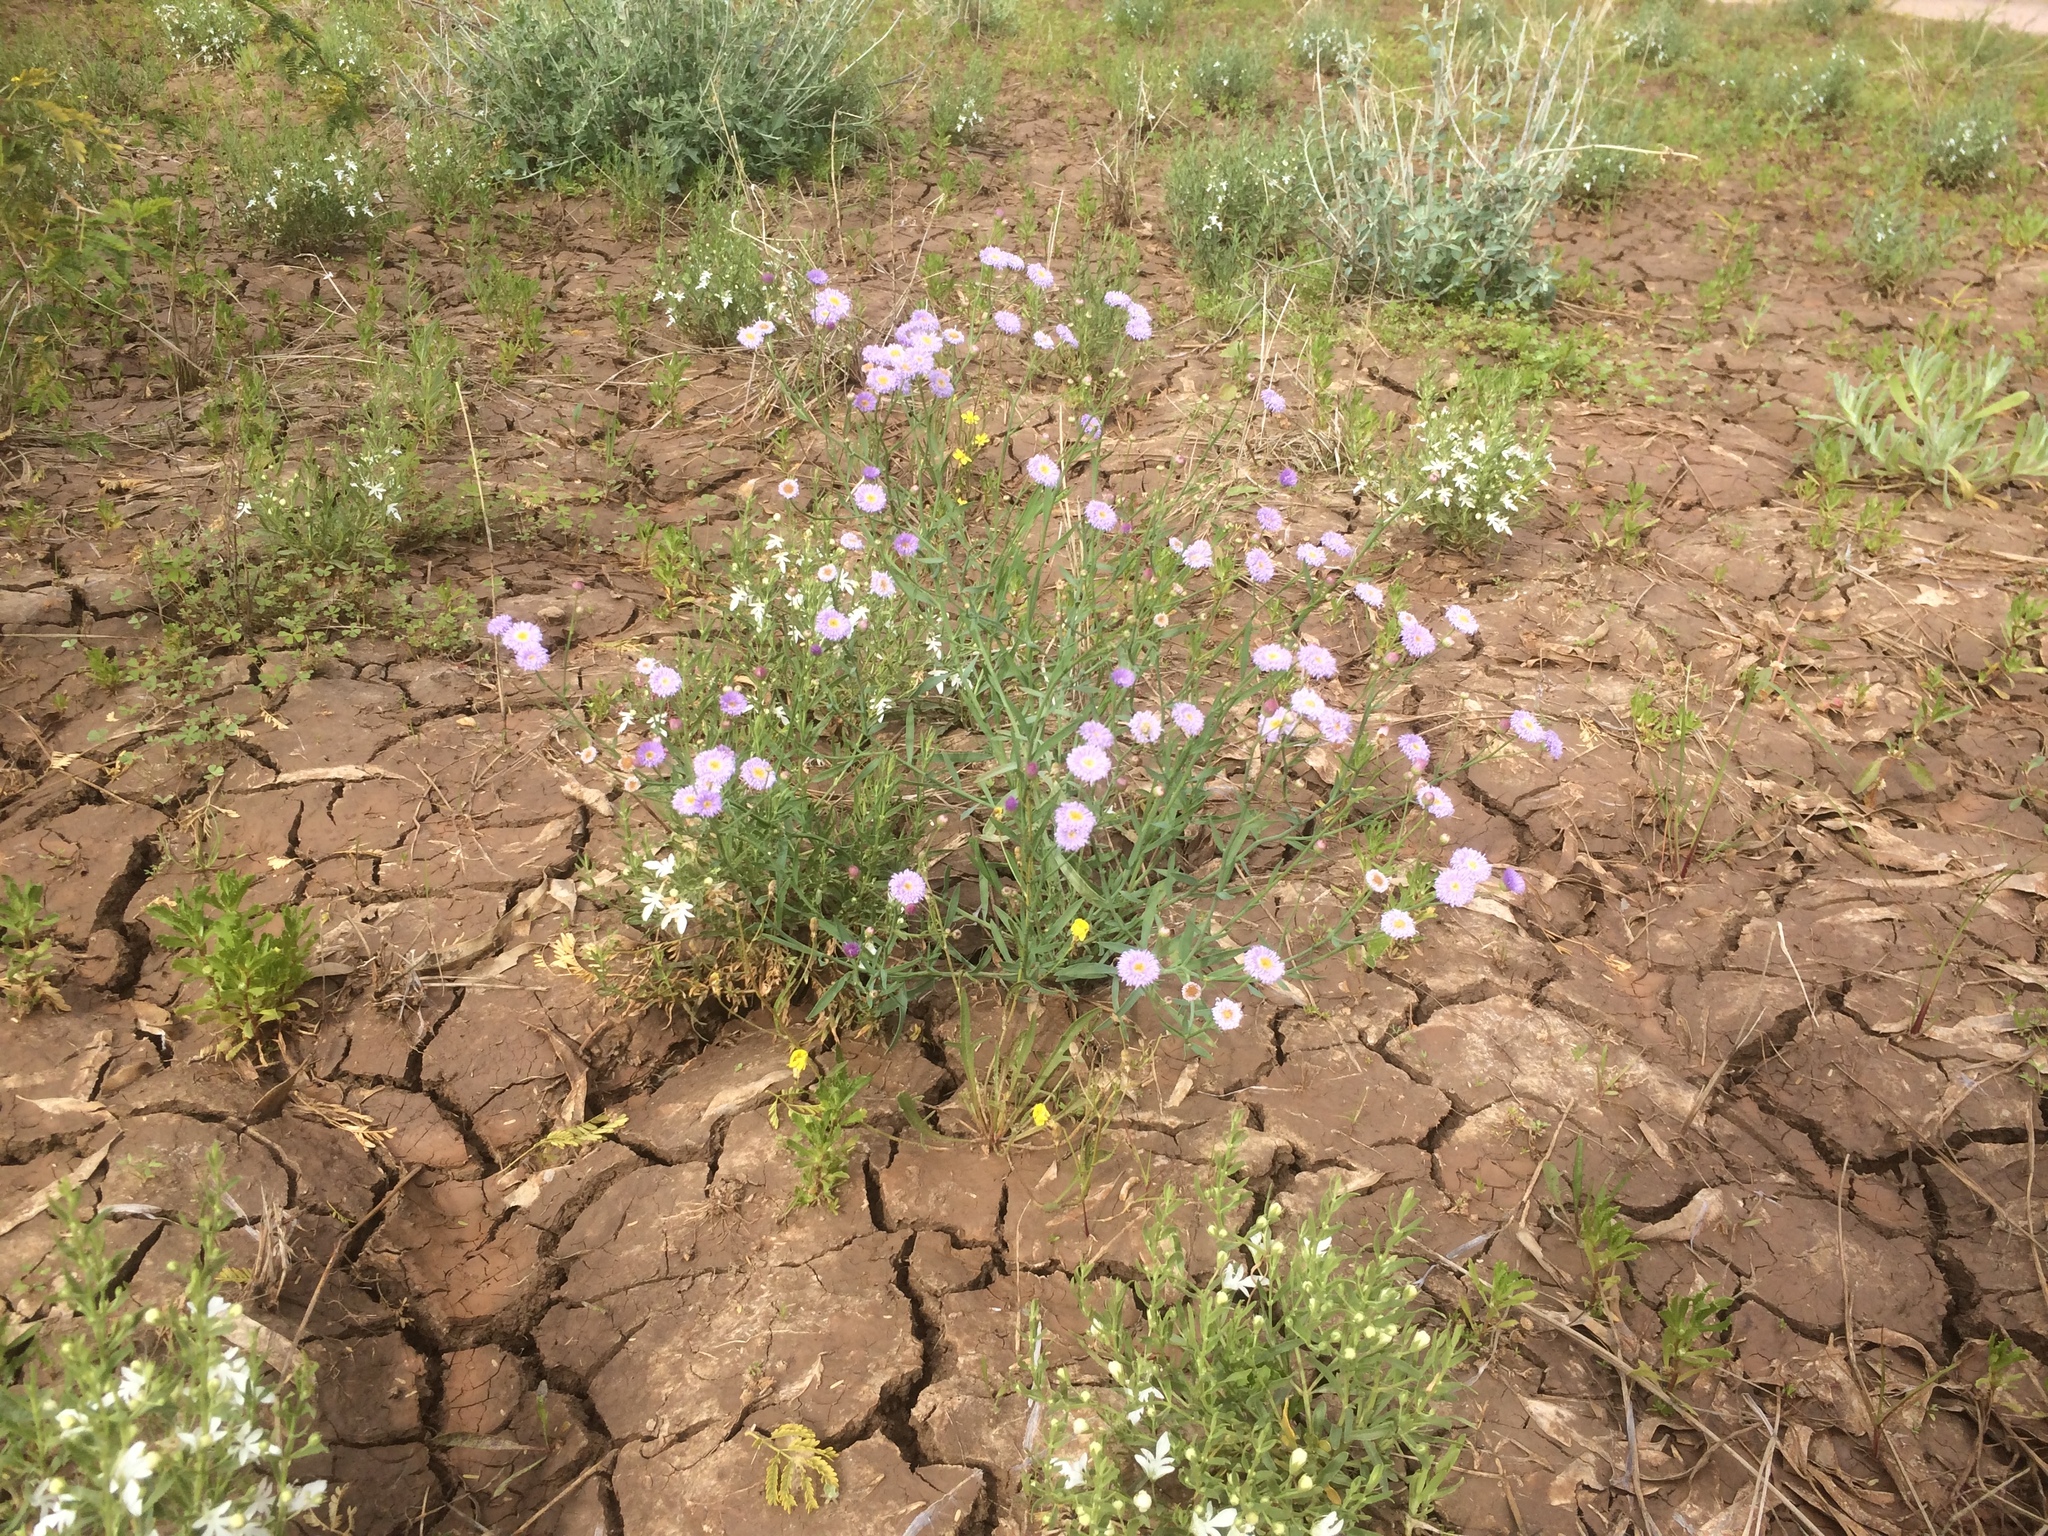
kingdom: Plantae
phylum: Tracheophyta
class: Magnoliopsida
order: Asterales
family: Asteraceae
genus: Minuria
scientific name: Minuria integerrima
